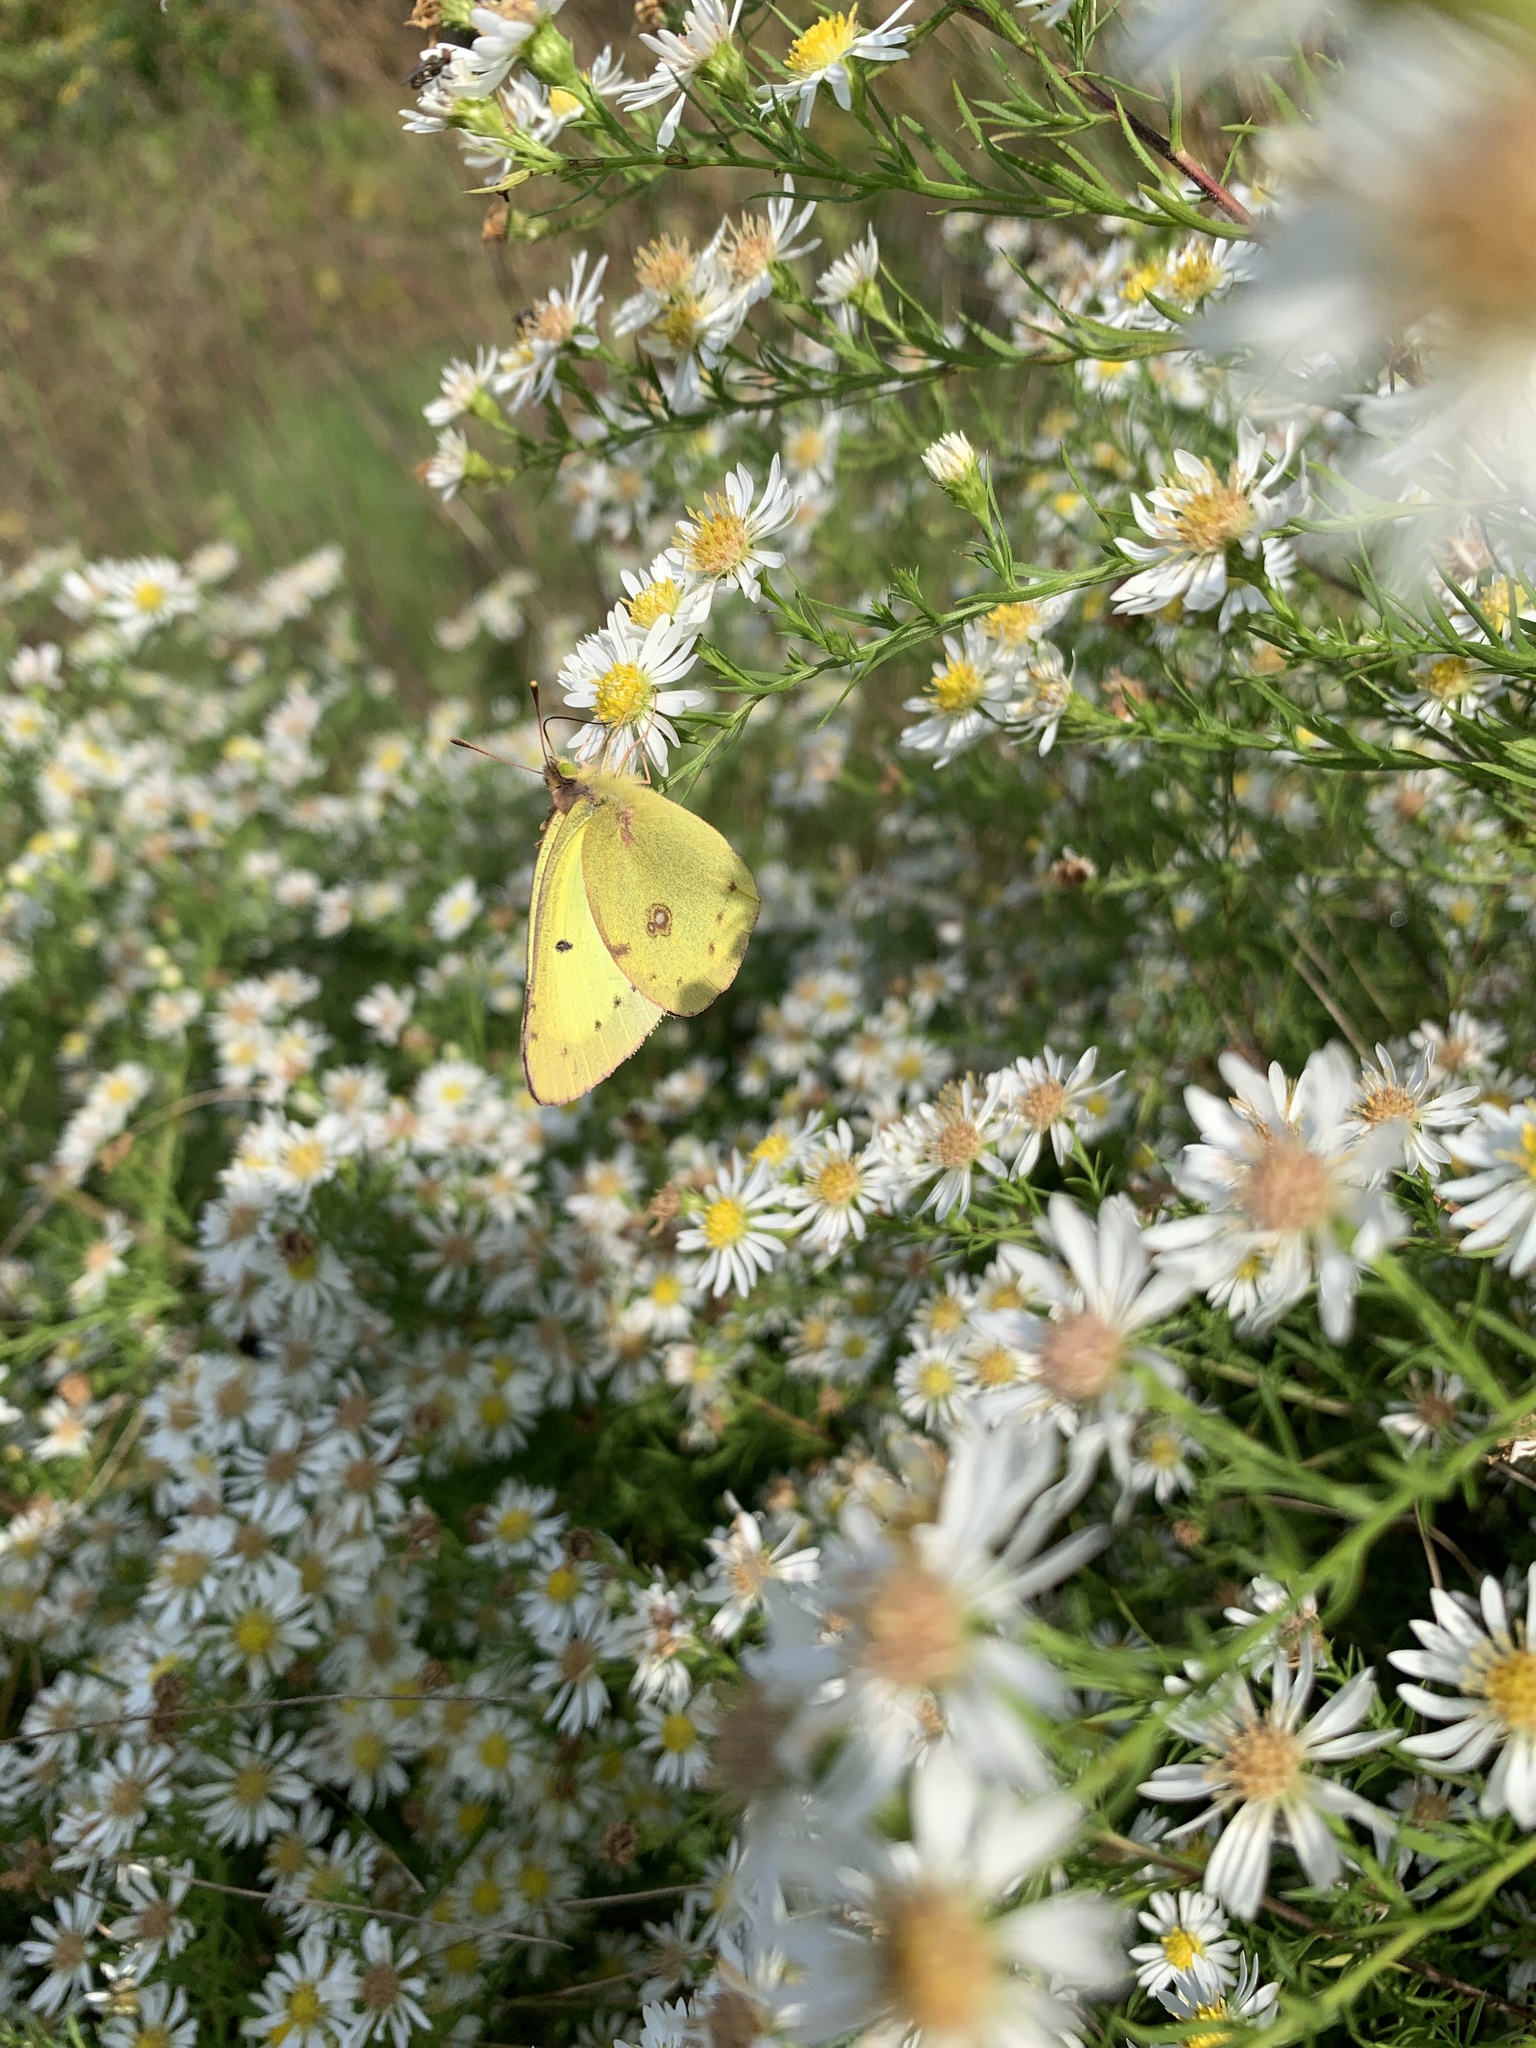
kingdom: Animalia
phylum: Arthropoda
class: Insecta
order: Lepidoptera
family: Pieridae
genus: Colias
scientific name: Colias philodice
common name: Clouded sulphur
